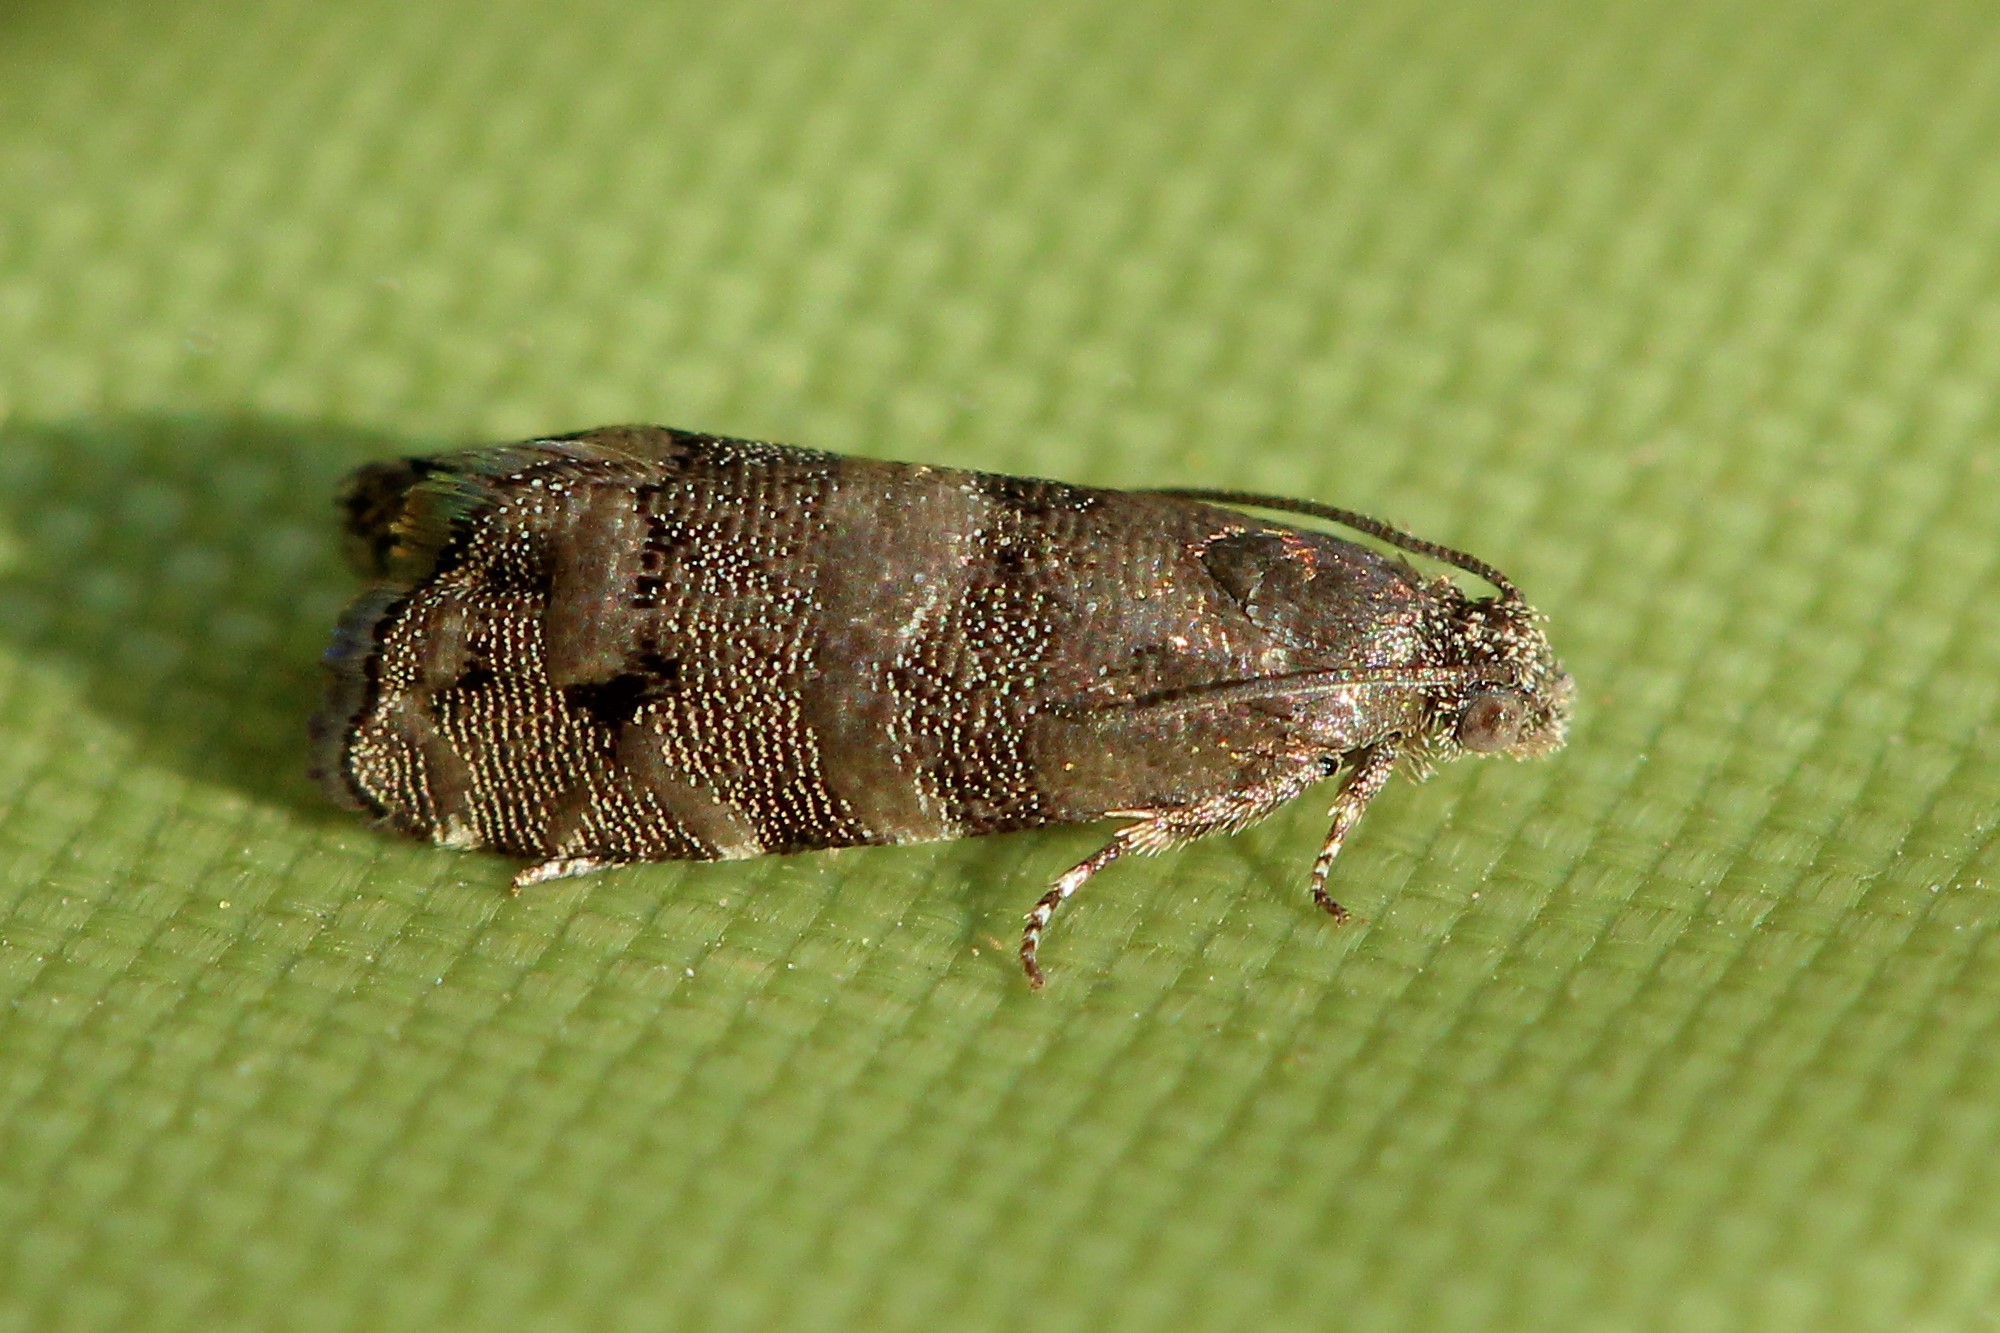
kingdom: Animalia
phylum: Arthropoda
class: Insecta
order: Lepidoptera
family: Tortricidae
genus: Pammene
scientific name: Pammene splendidulana
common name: Drab oak piercer
